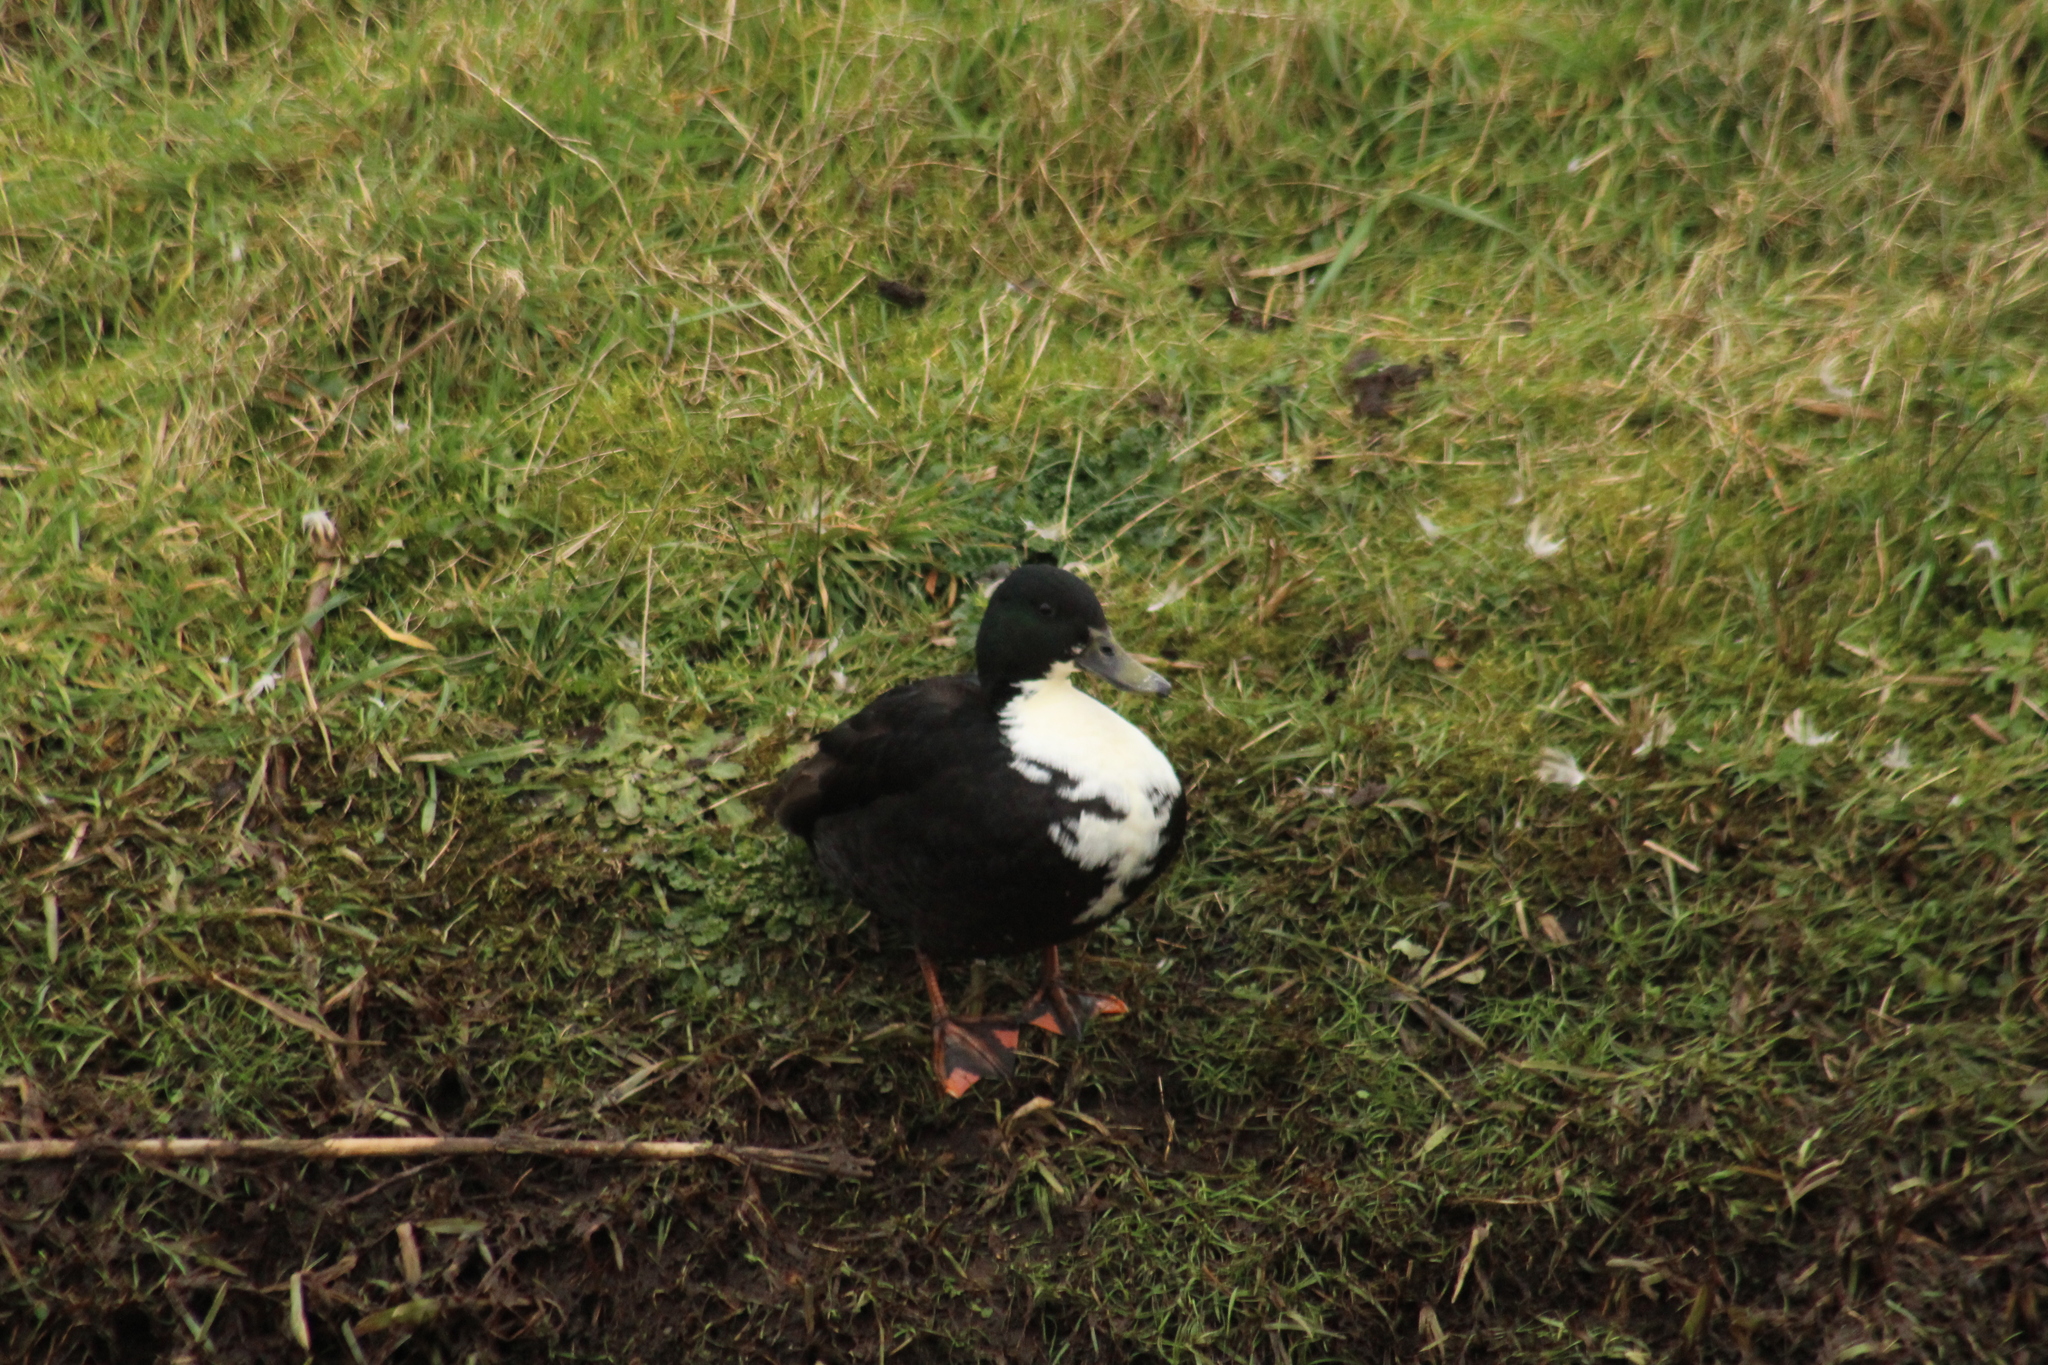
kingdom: Animalia
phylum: Chordata
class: Aves
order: Anseriformes
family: Anatidae
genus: Anas
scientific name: Anas platyrhynchos
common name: Mallard
